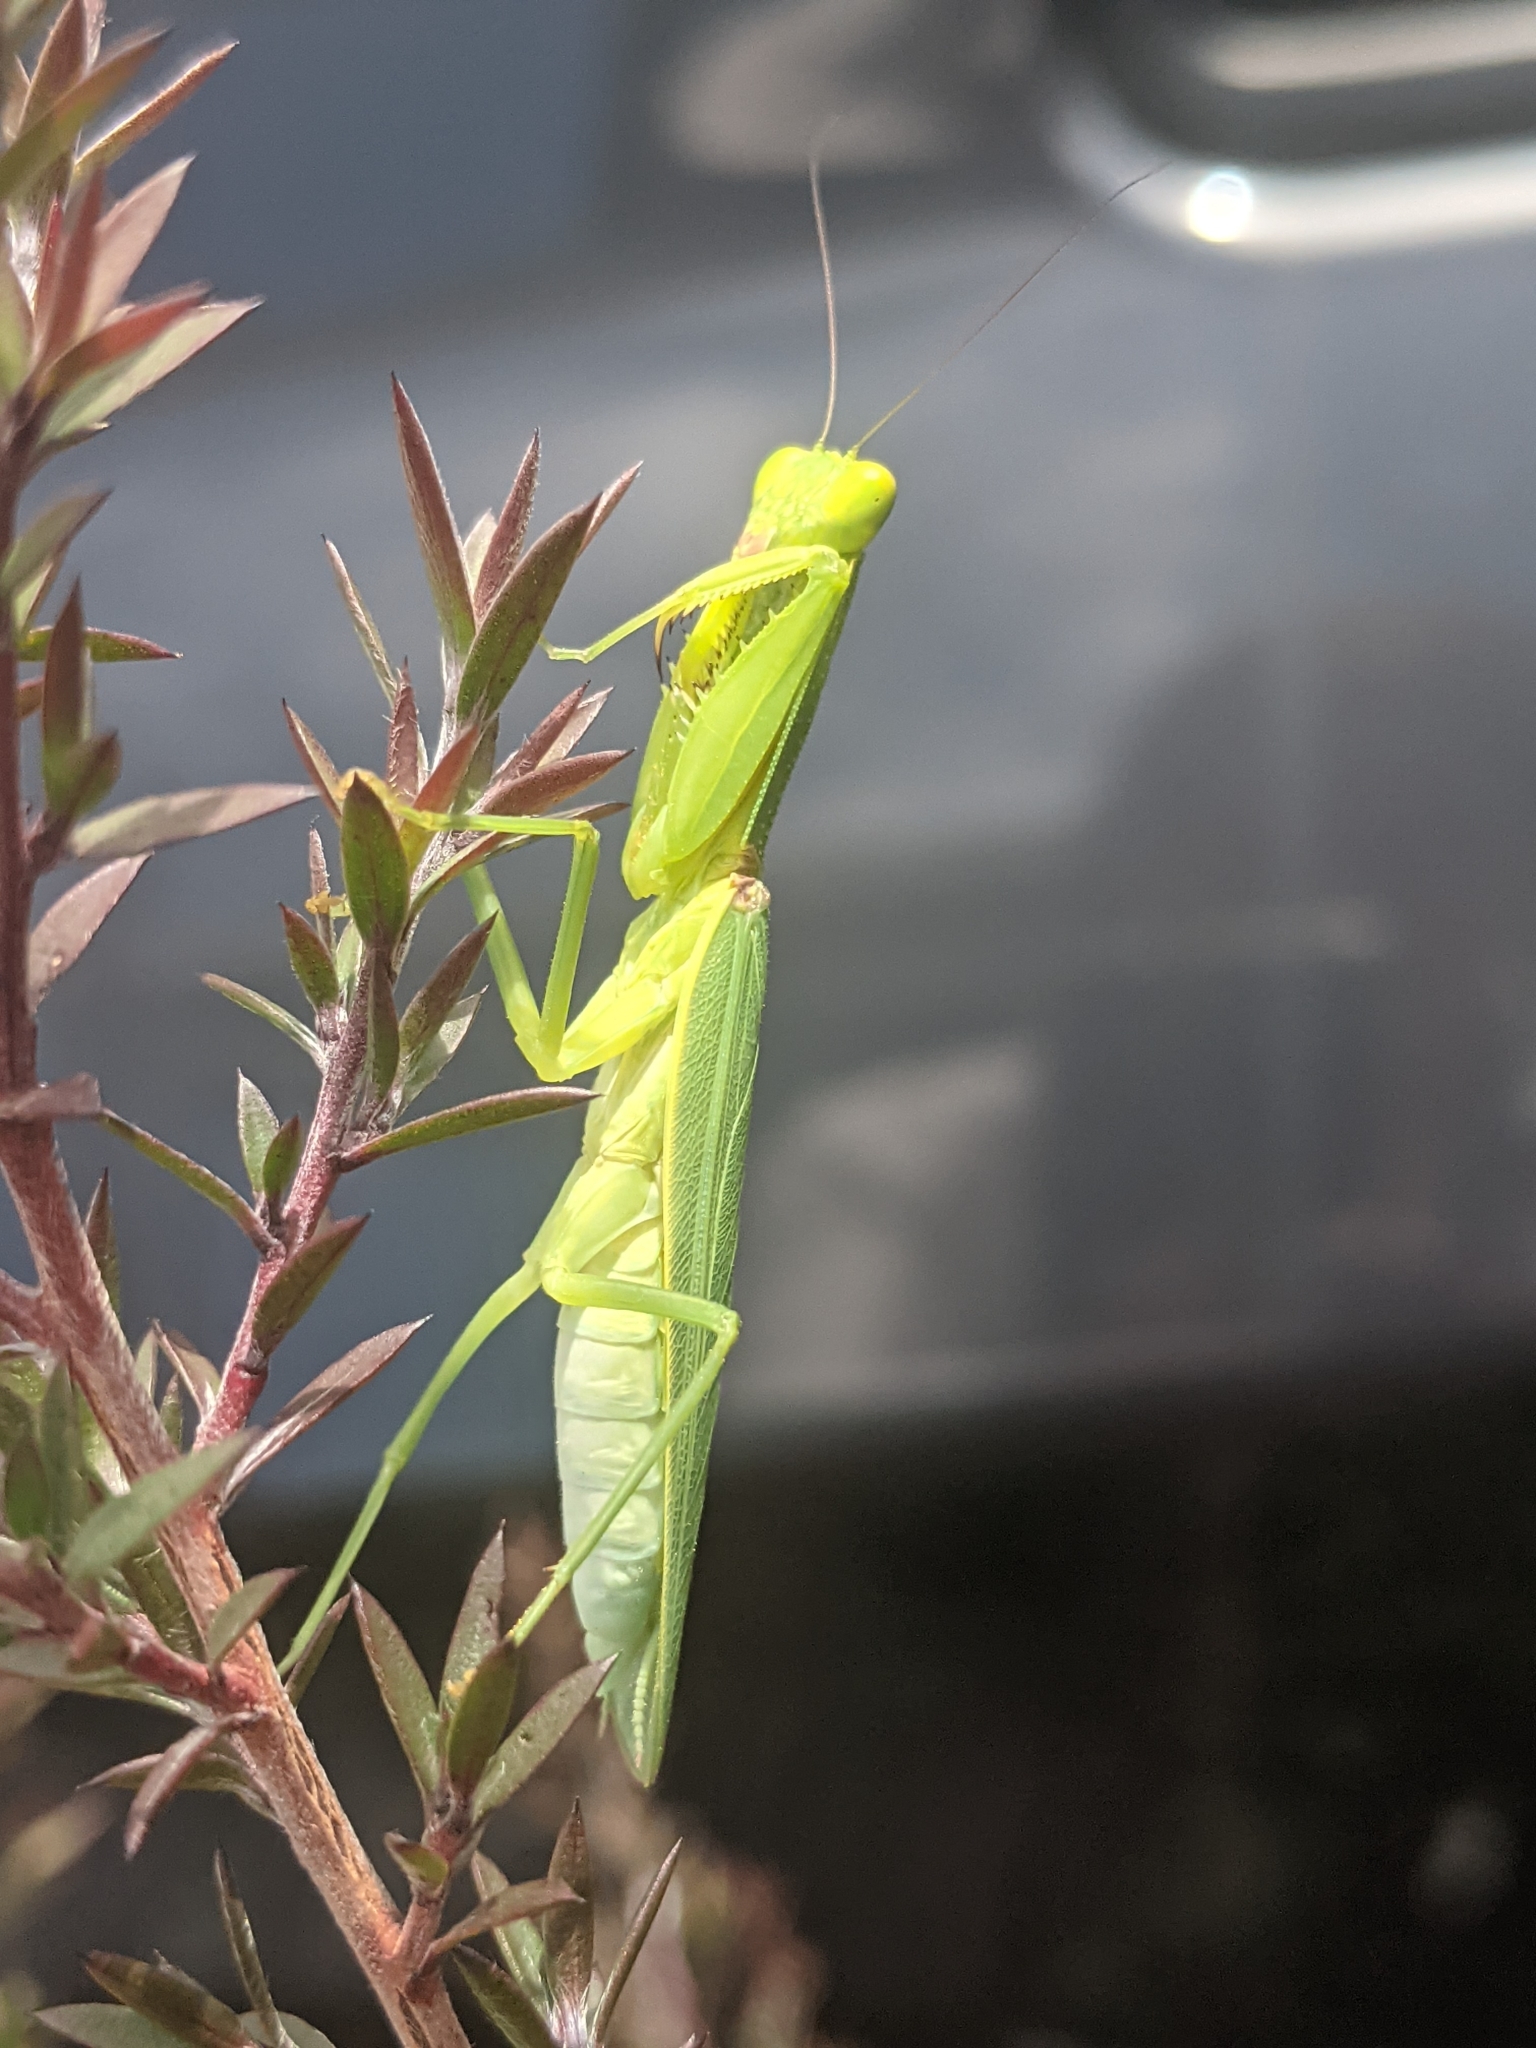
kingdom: Animalia
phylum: Arthropoda
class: Insecta
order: Mantodea
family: Mantidae
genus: Orthodera
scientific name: Orthodera ministralis
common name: Mantis
